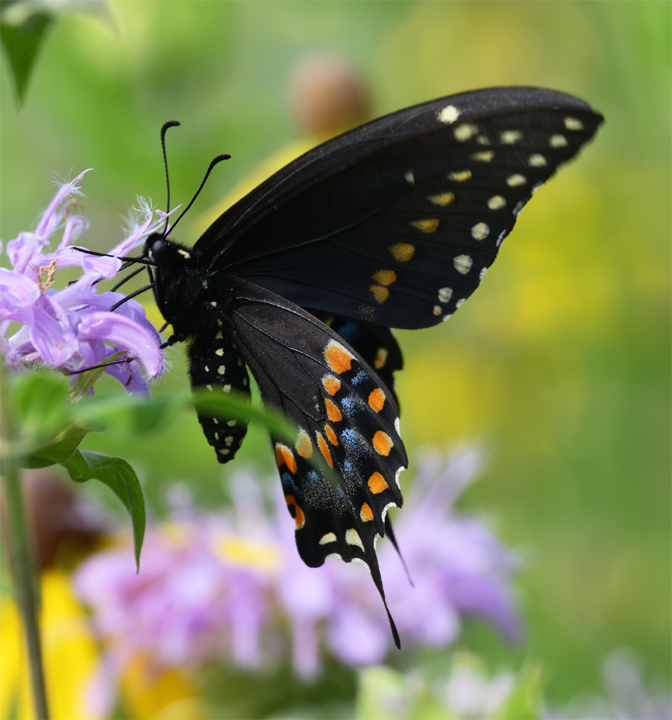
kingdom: Animalia
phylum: Arthropoda
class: Insecta
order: Lepidoptera
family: Papilionidae
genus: Papilio
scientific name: Papilio polyxenes
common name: Black swallowtail
